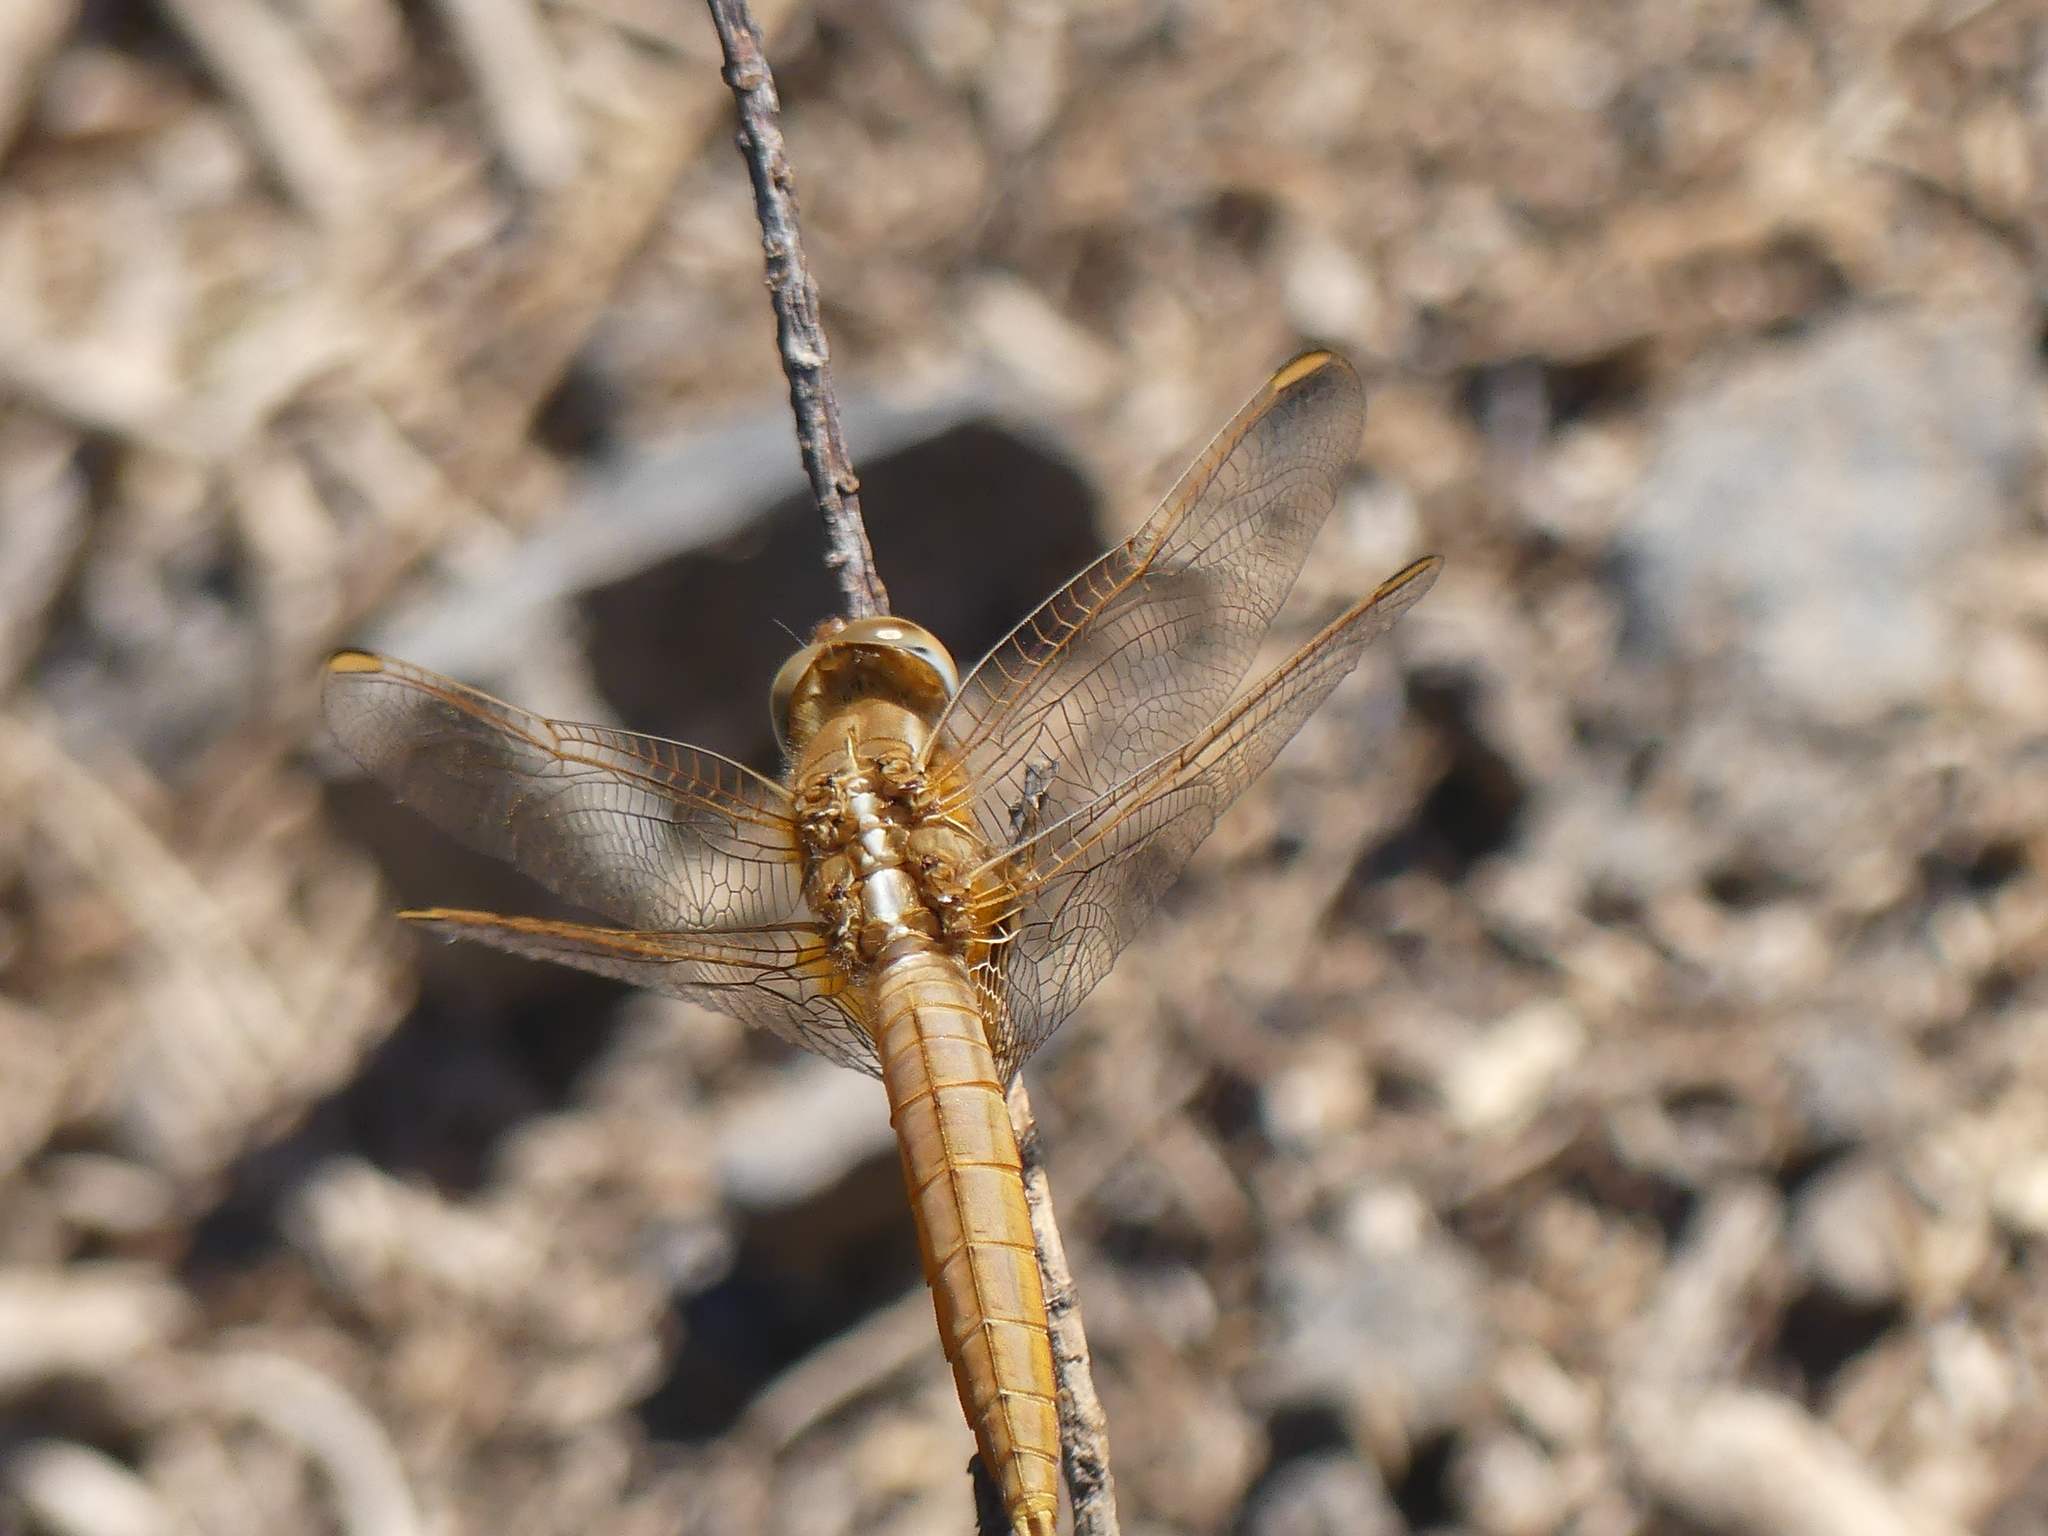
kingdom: Animalia
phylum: Arthropoda
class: Insecta
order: Odonata
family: Libellulidae
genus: Crocothemis
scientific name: Crocothemis erythraea
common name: Scarlet dragonfly
